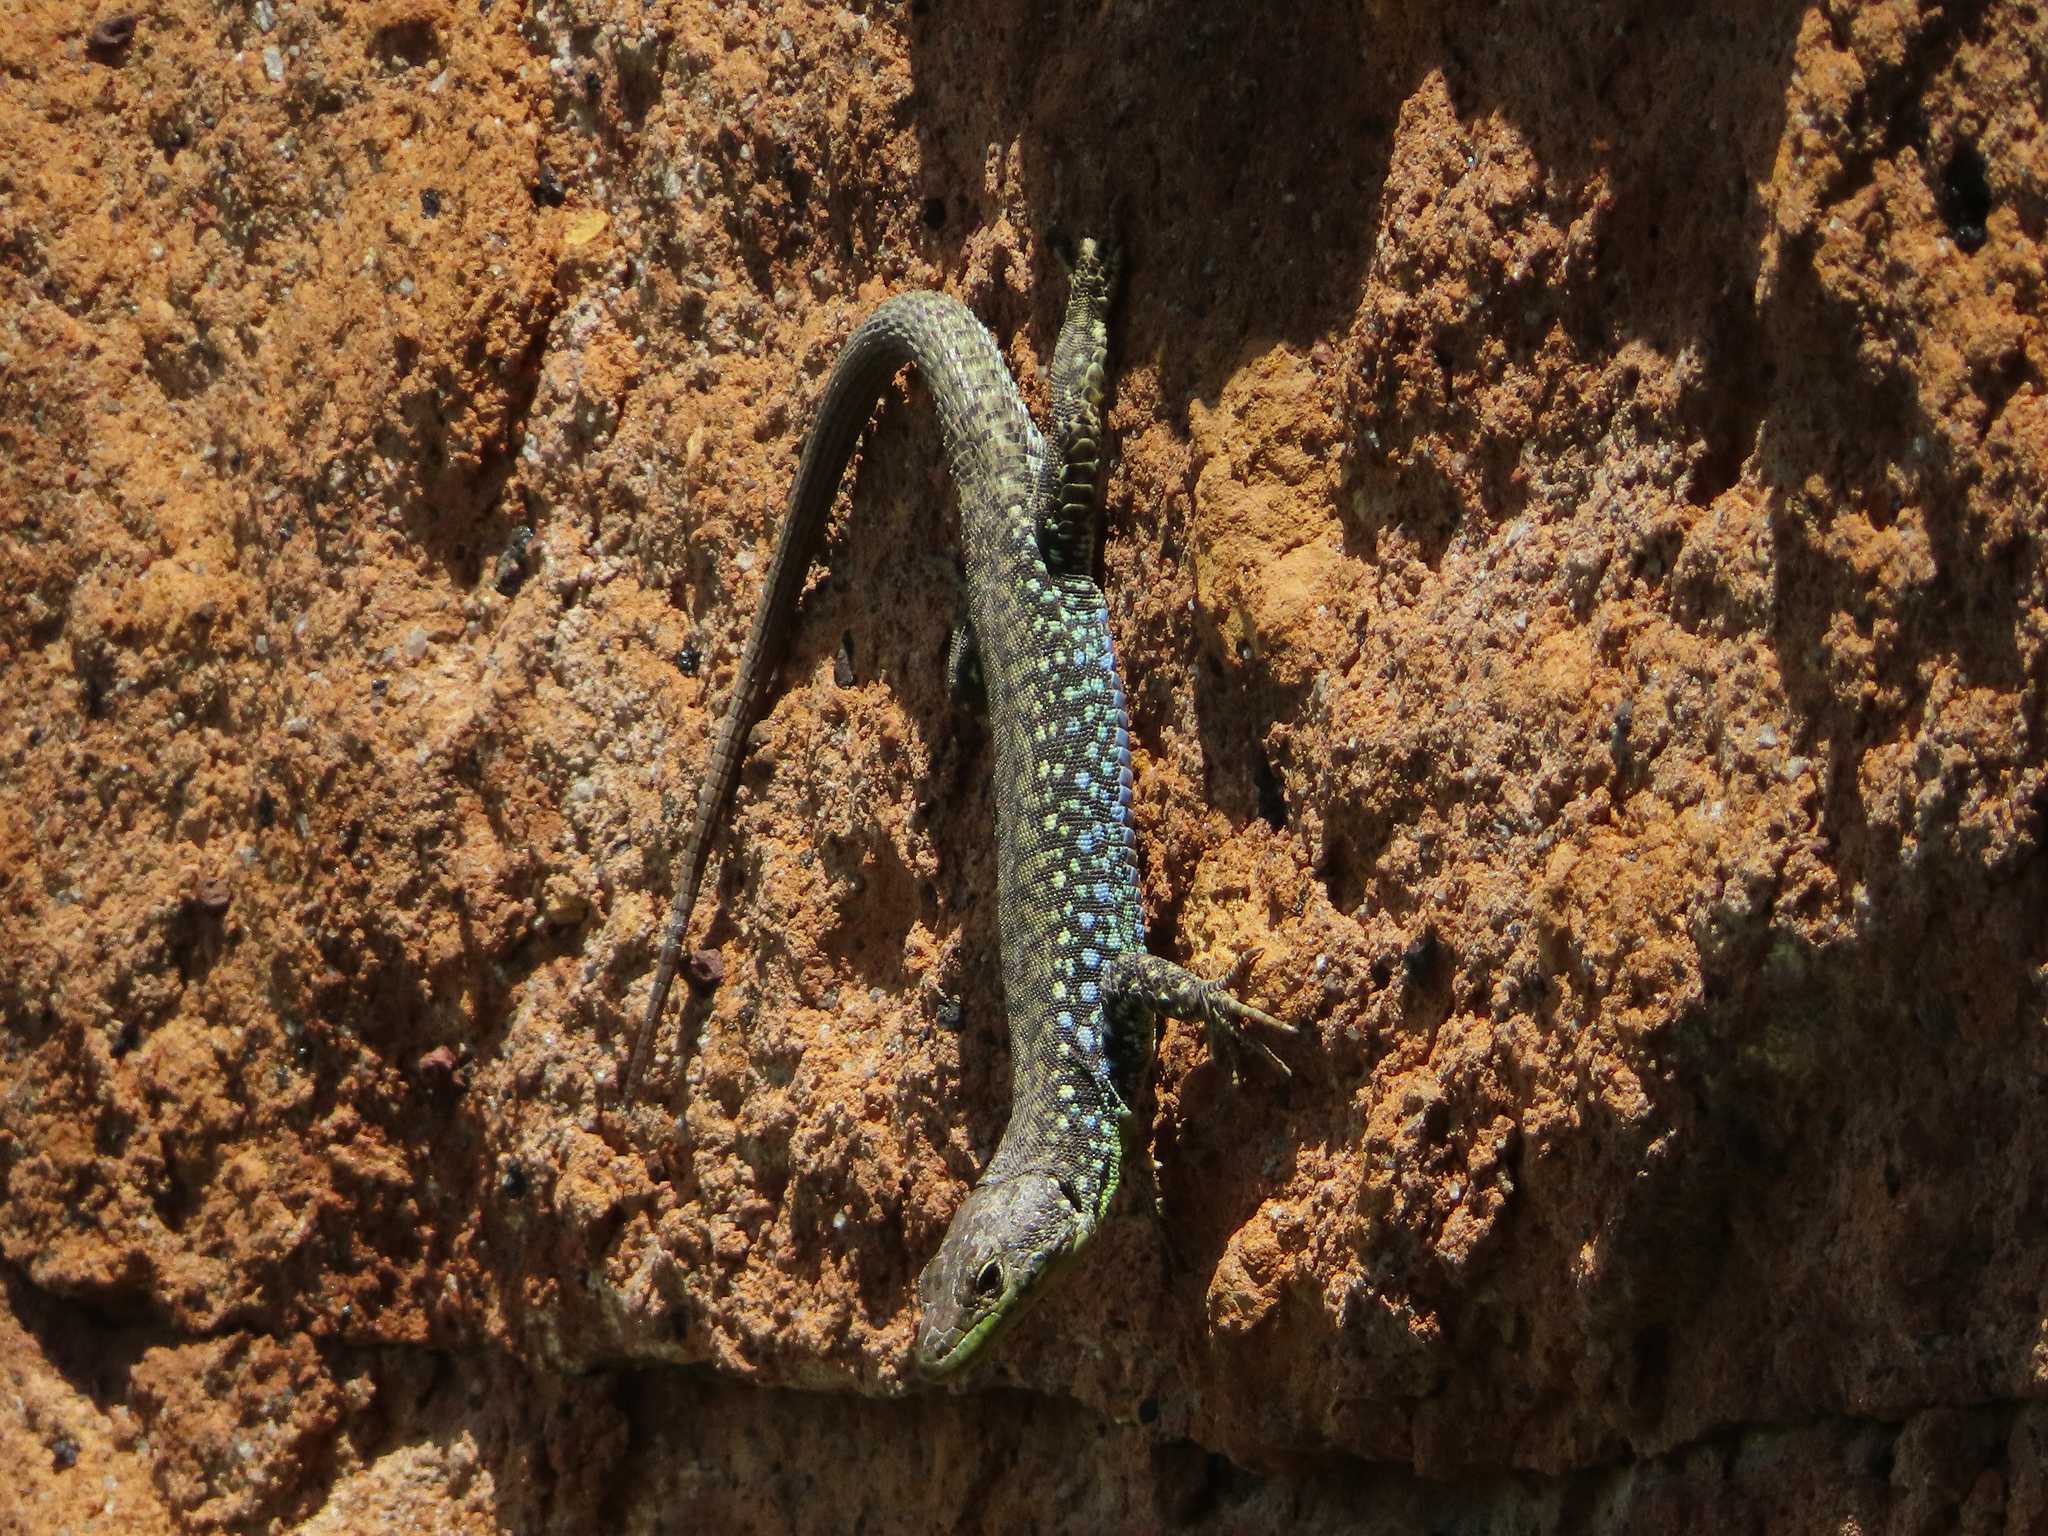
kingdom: Animalia
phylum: Chordata
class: Squamata
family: Lacertidae
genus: Darevskia
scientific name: Darevskia
